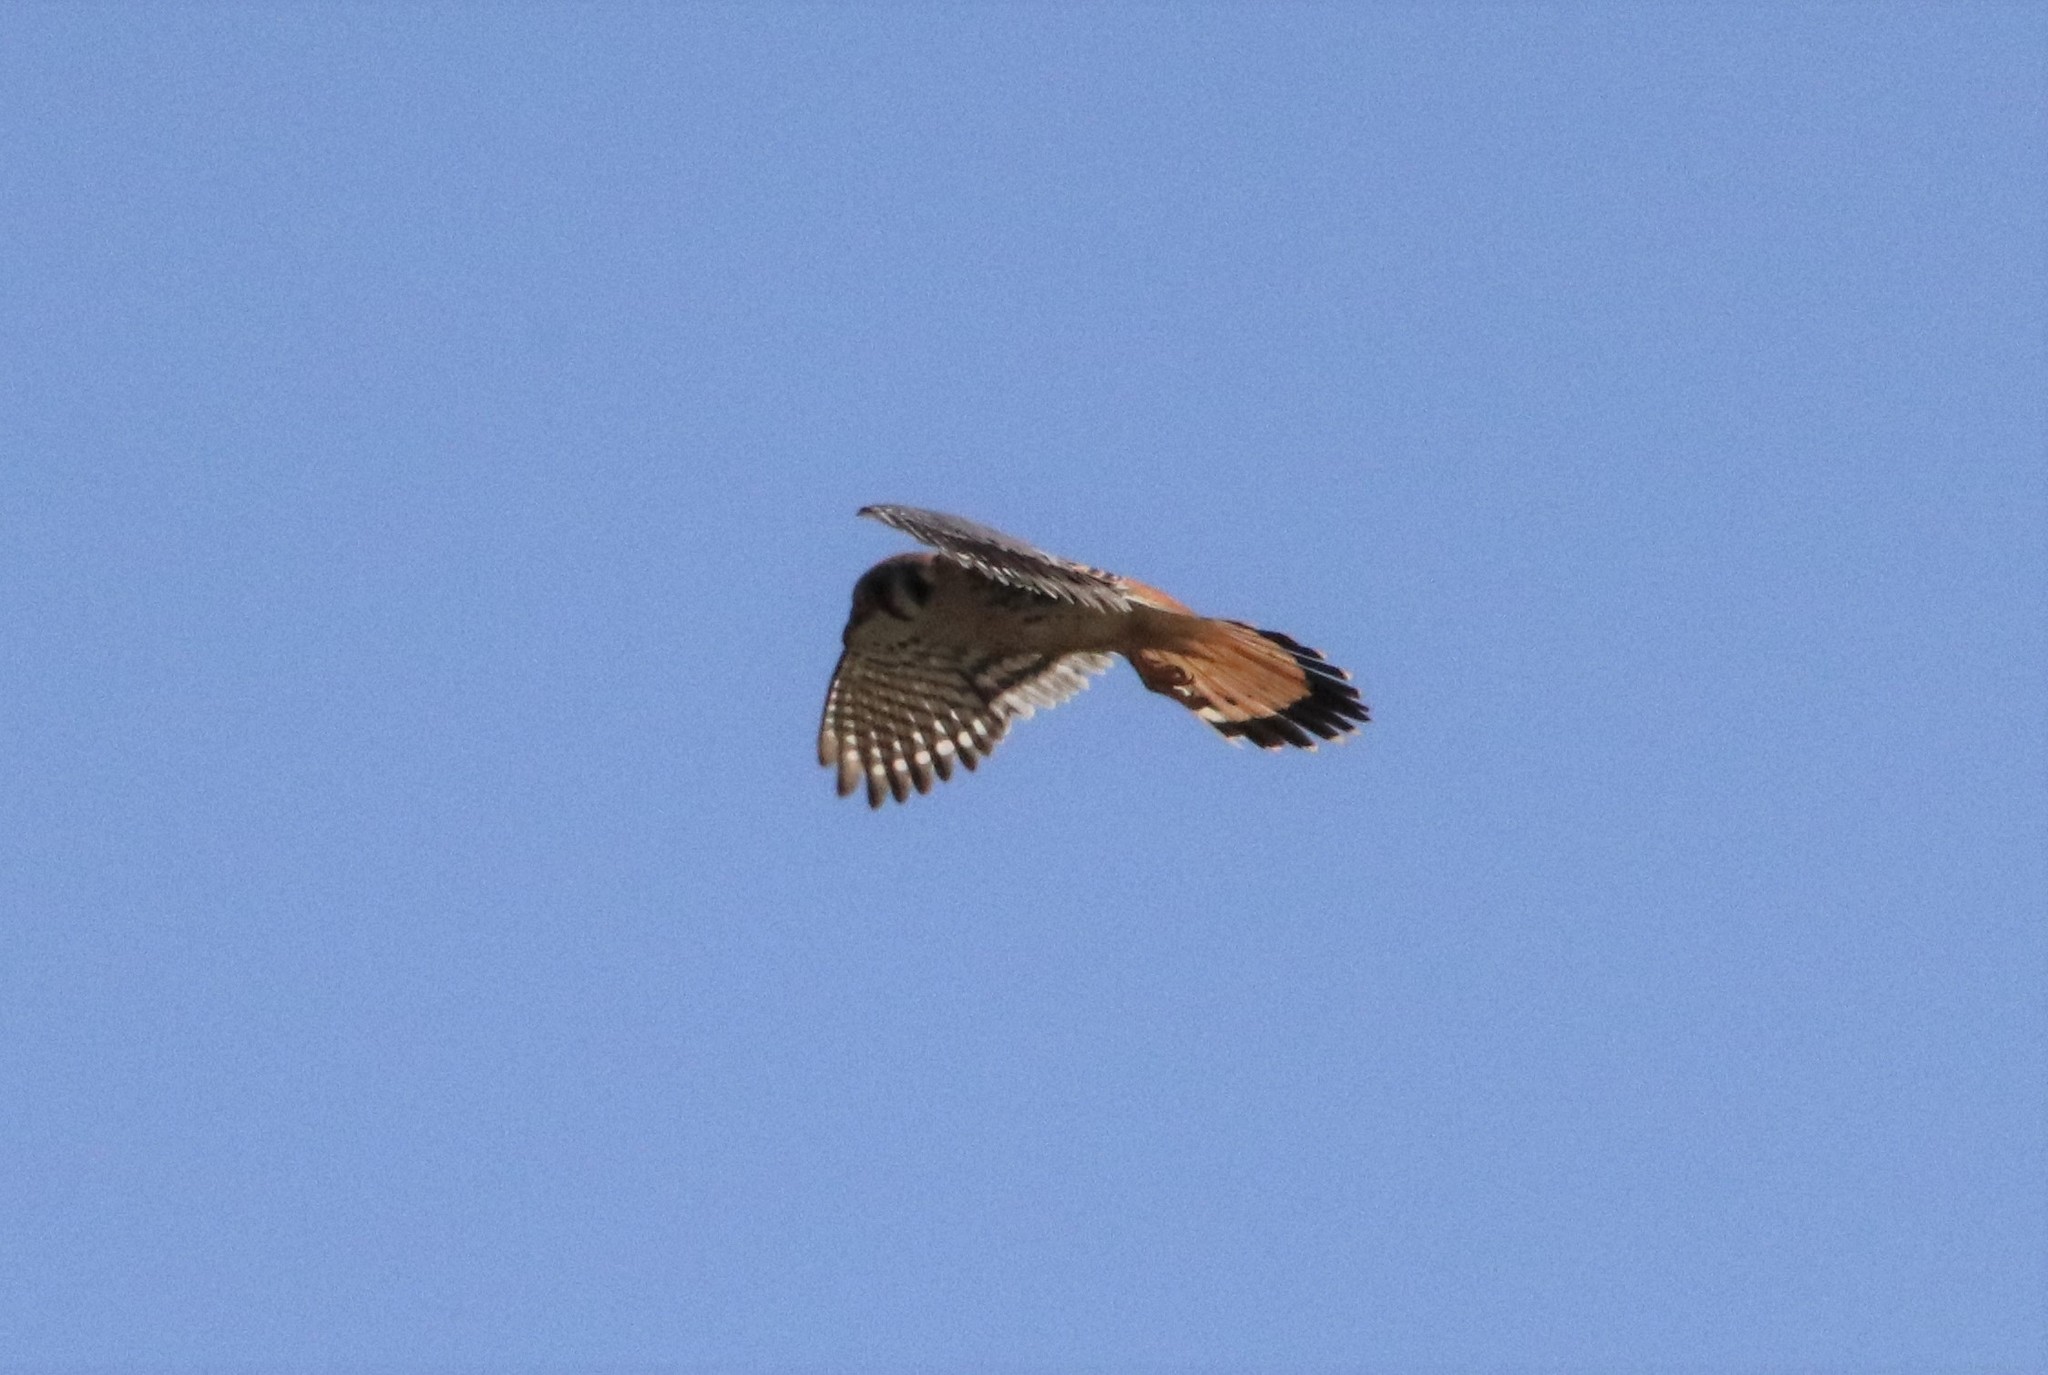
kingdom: Animalia
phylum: Chordata
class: Aves
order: Falconiformes
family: Falconidae
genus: Falco
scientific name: Falco sparverius
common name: American kestrel
